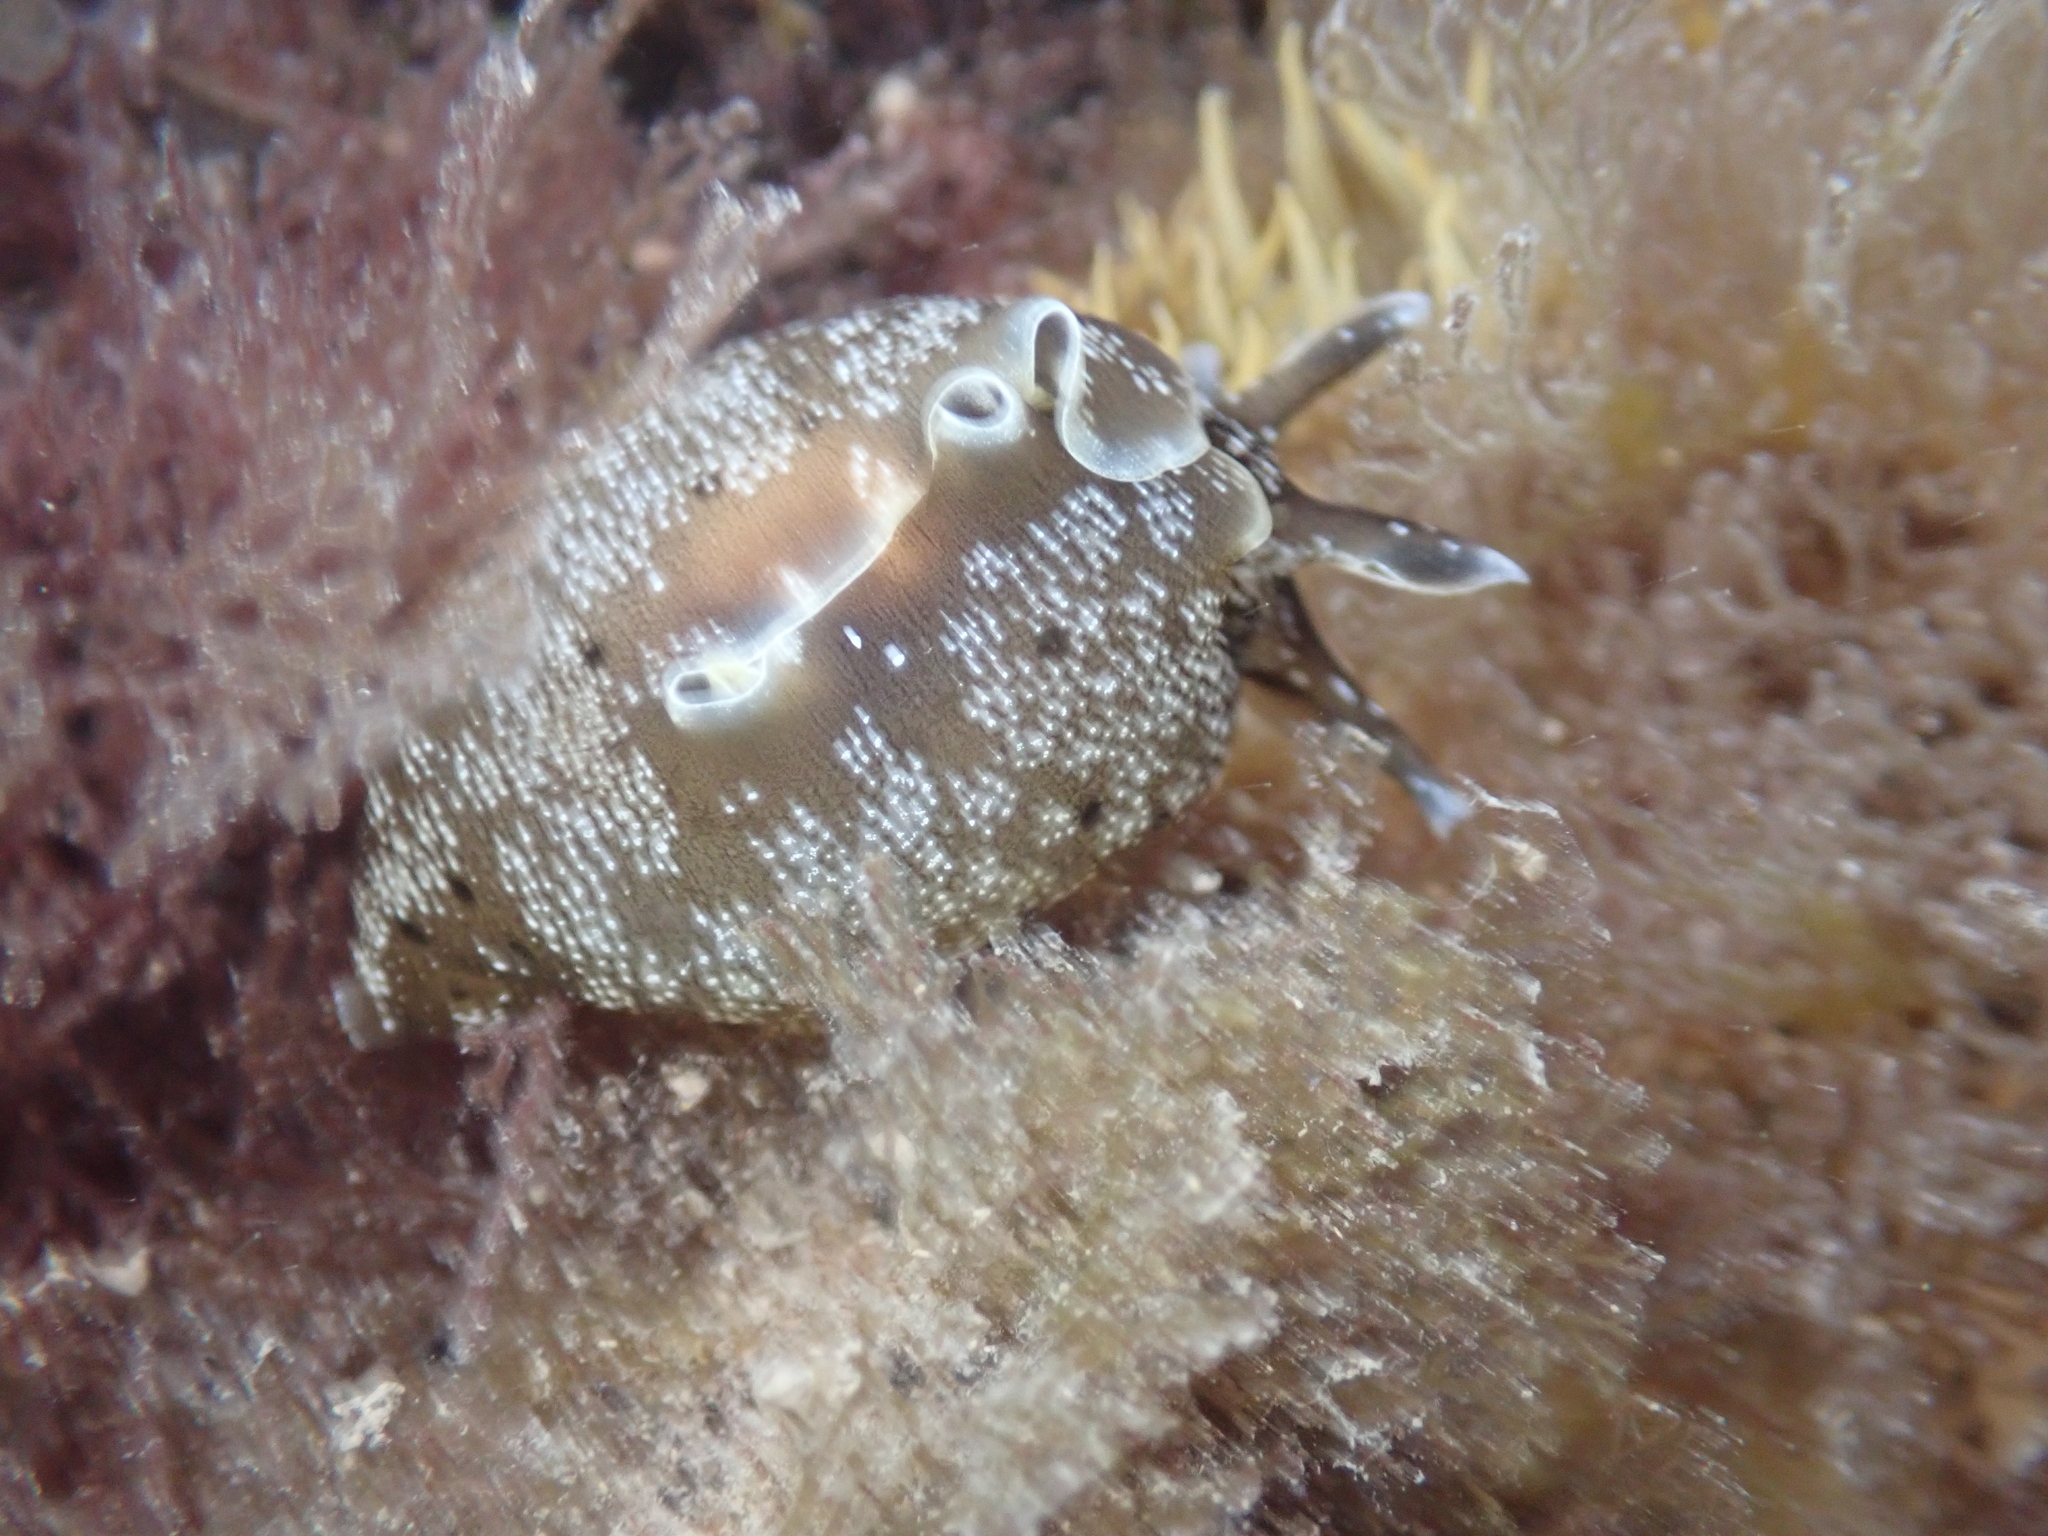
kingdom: Animalia
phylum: Mollusca
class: Gastropoda
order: Aplysiida
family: Aplysiidae
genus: Aplysia
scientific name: Aplysia punctata
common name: Common sea hare
